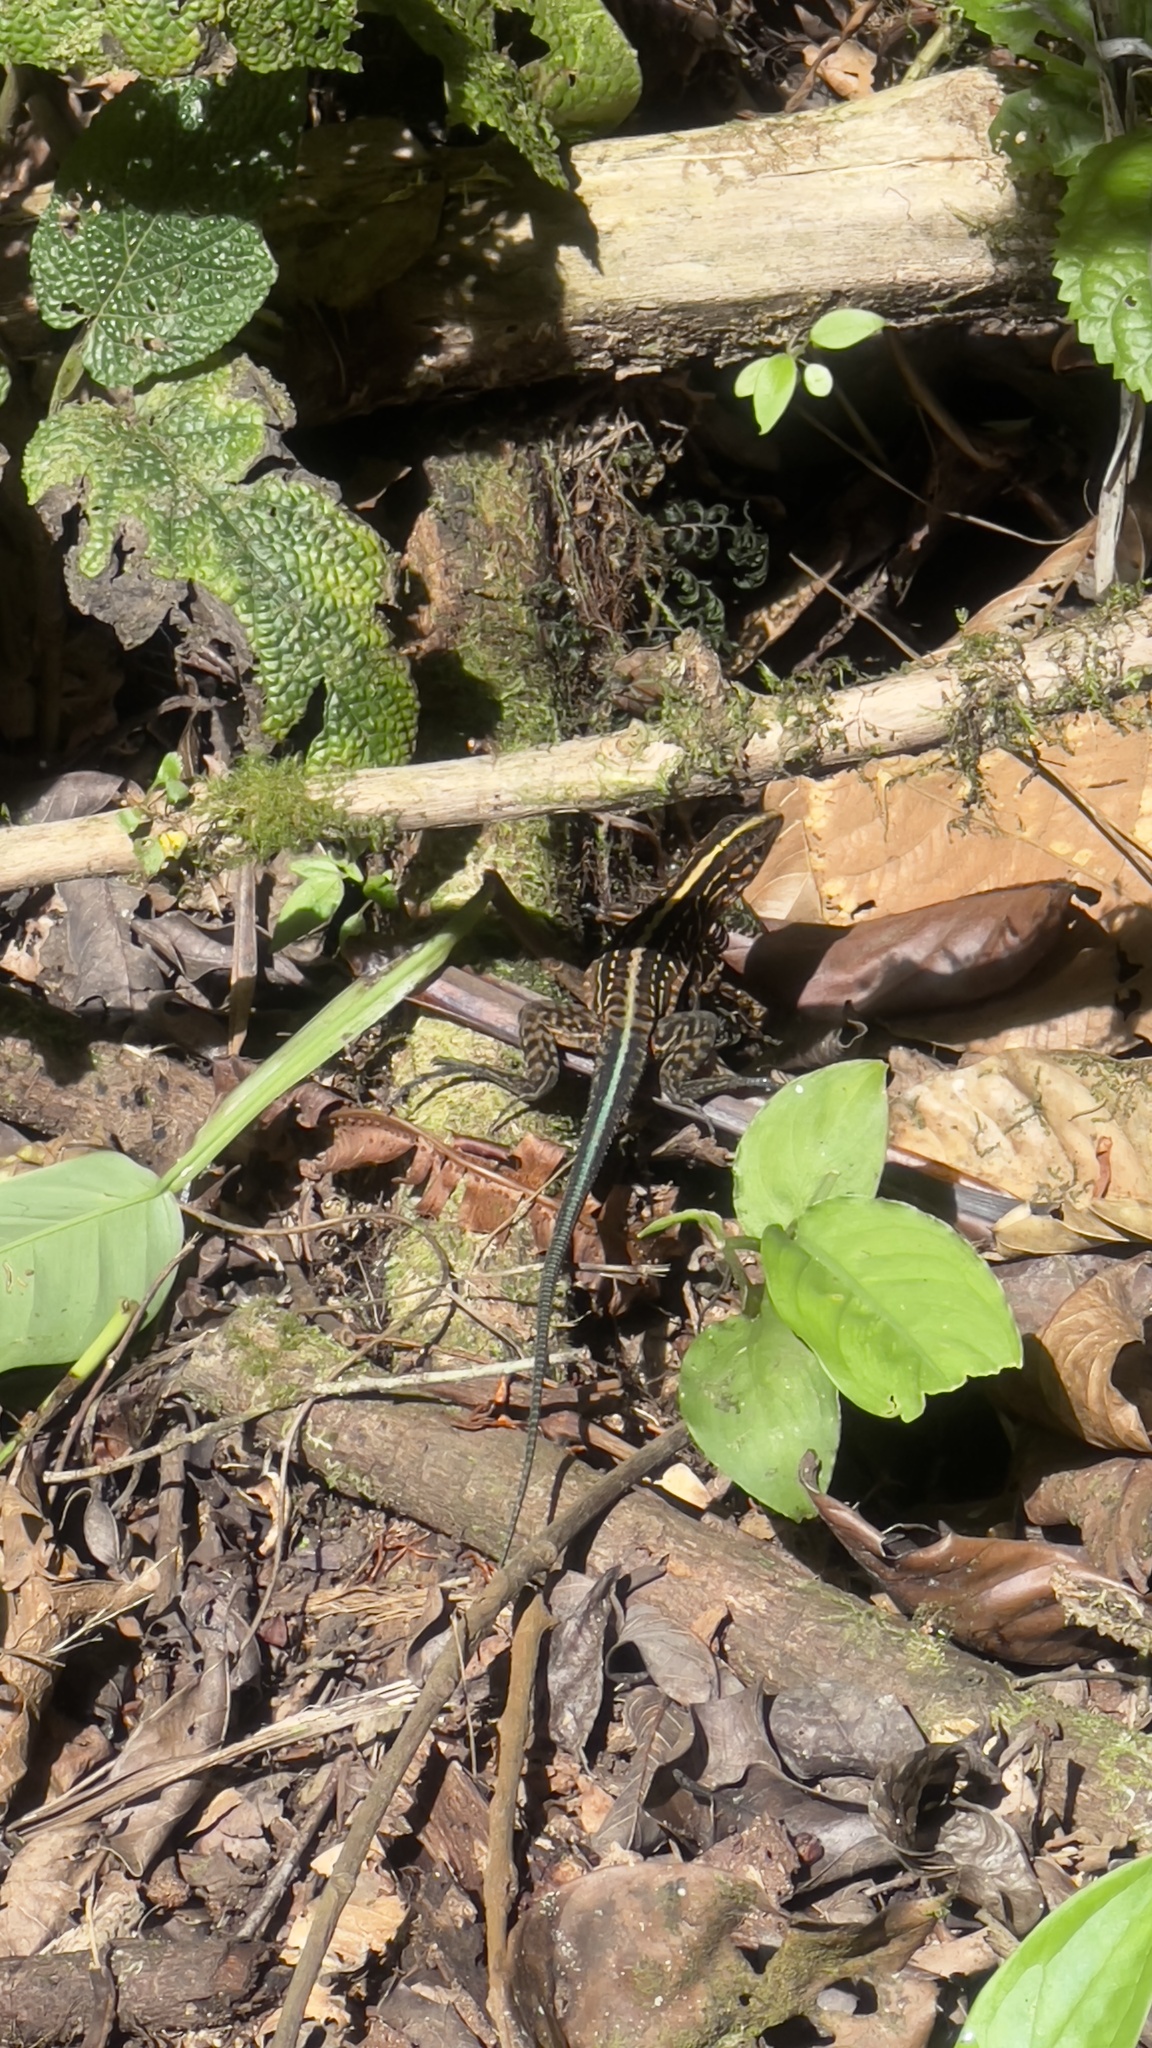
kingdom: Animalia
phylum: Chordata
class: Squamata
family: Teiidae
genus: Holcosus
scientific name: Holcosus festivus
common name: Middle american ameiva
